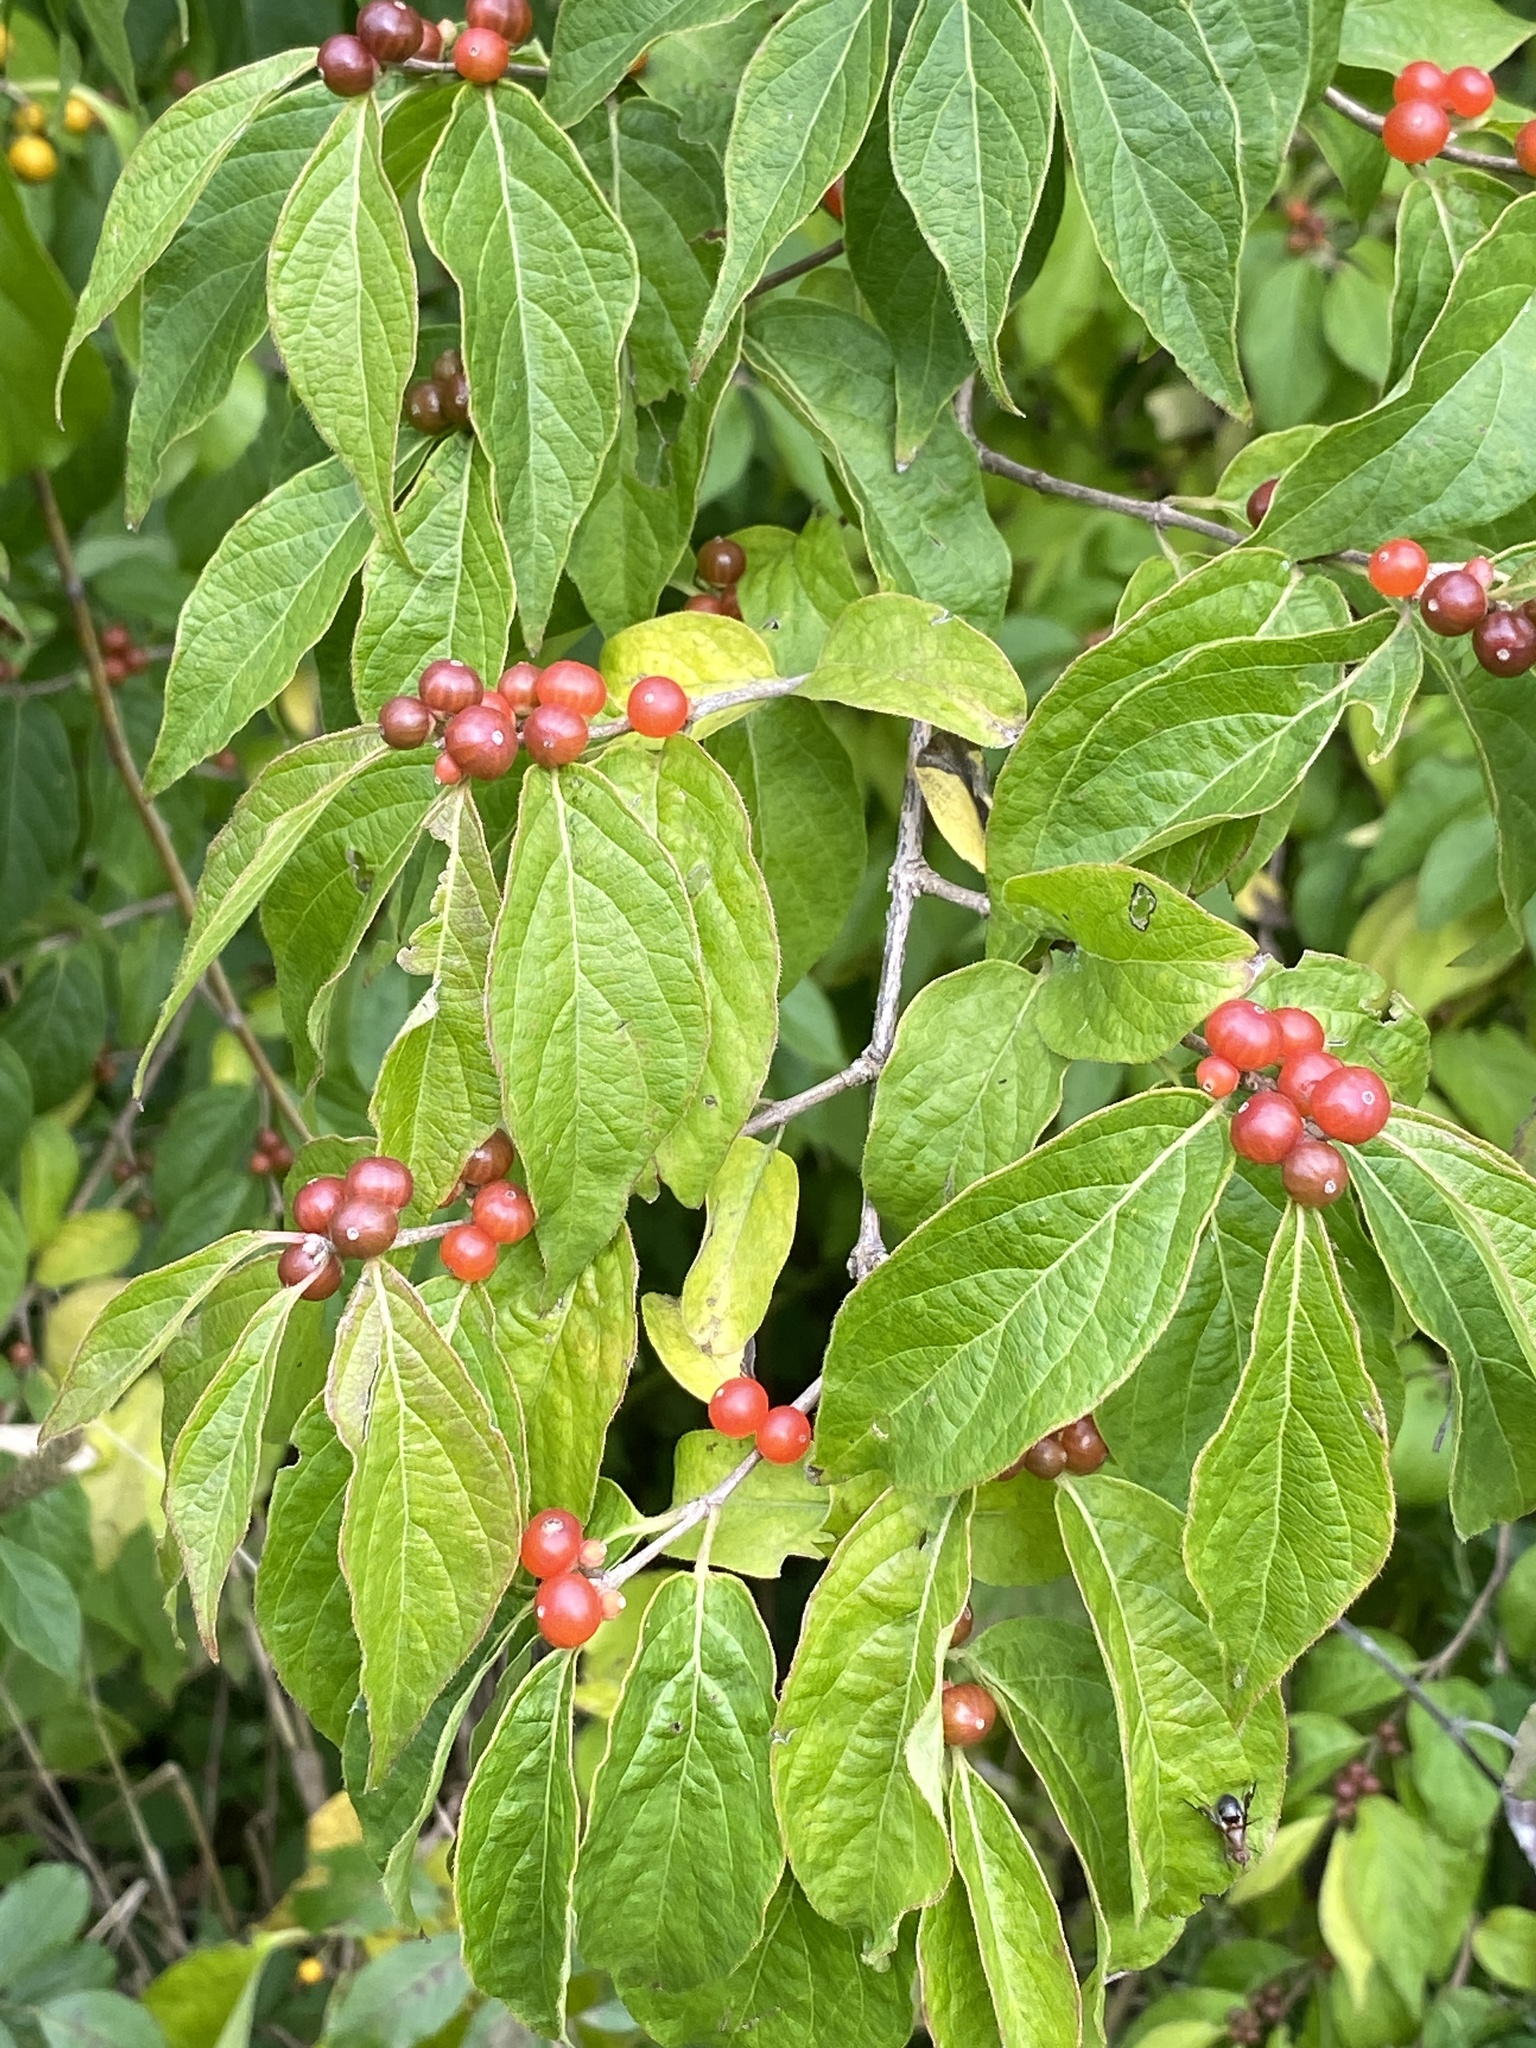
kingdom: Plantae
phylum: Tracheophyta
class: Magnoliopsida
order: Dipsacales
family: Caprifoliaceae
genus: Lonicera
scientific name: Lonicera maackii
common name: Amur honeysuckle
